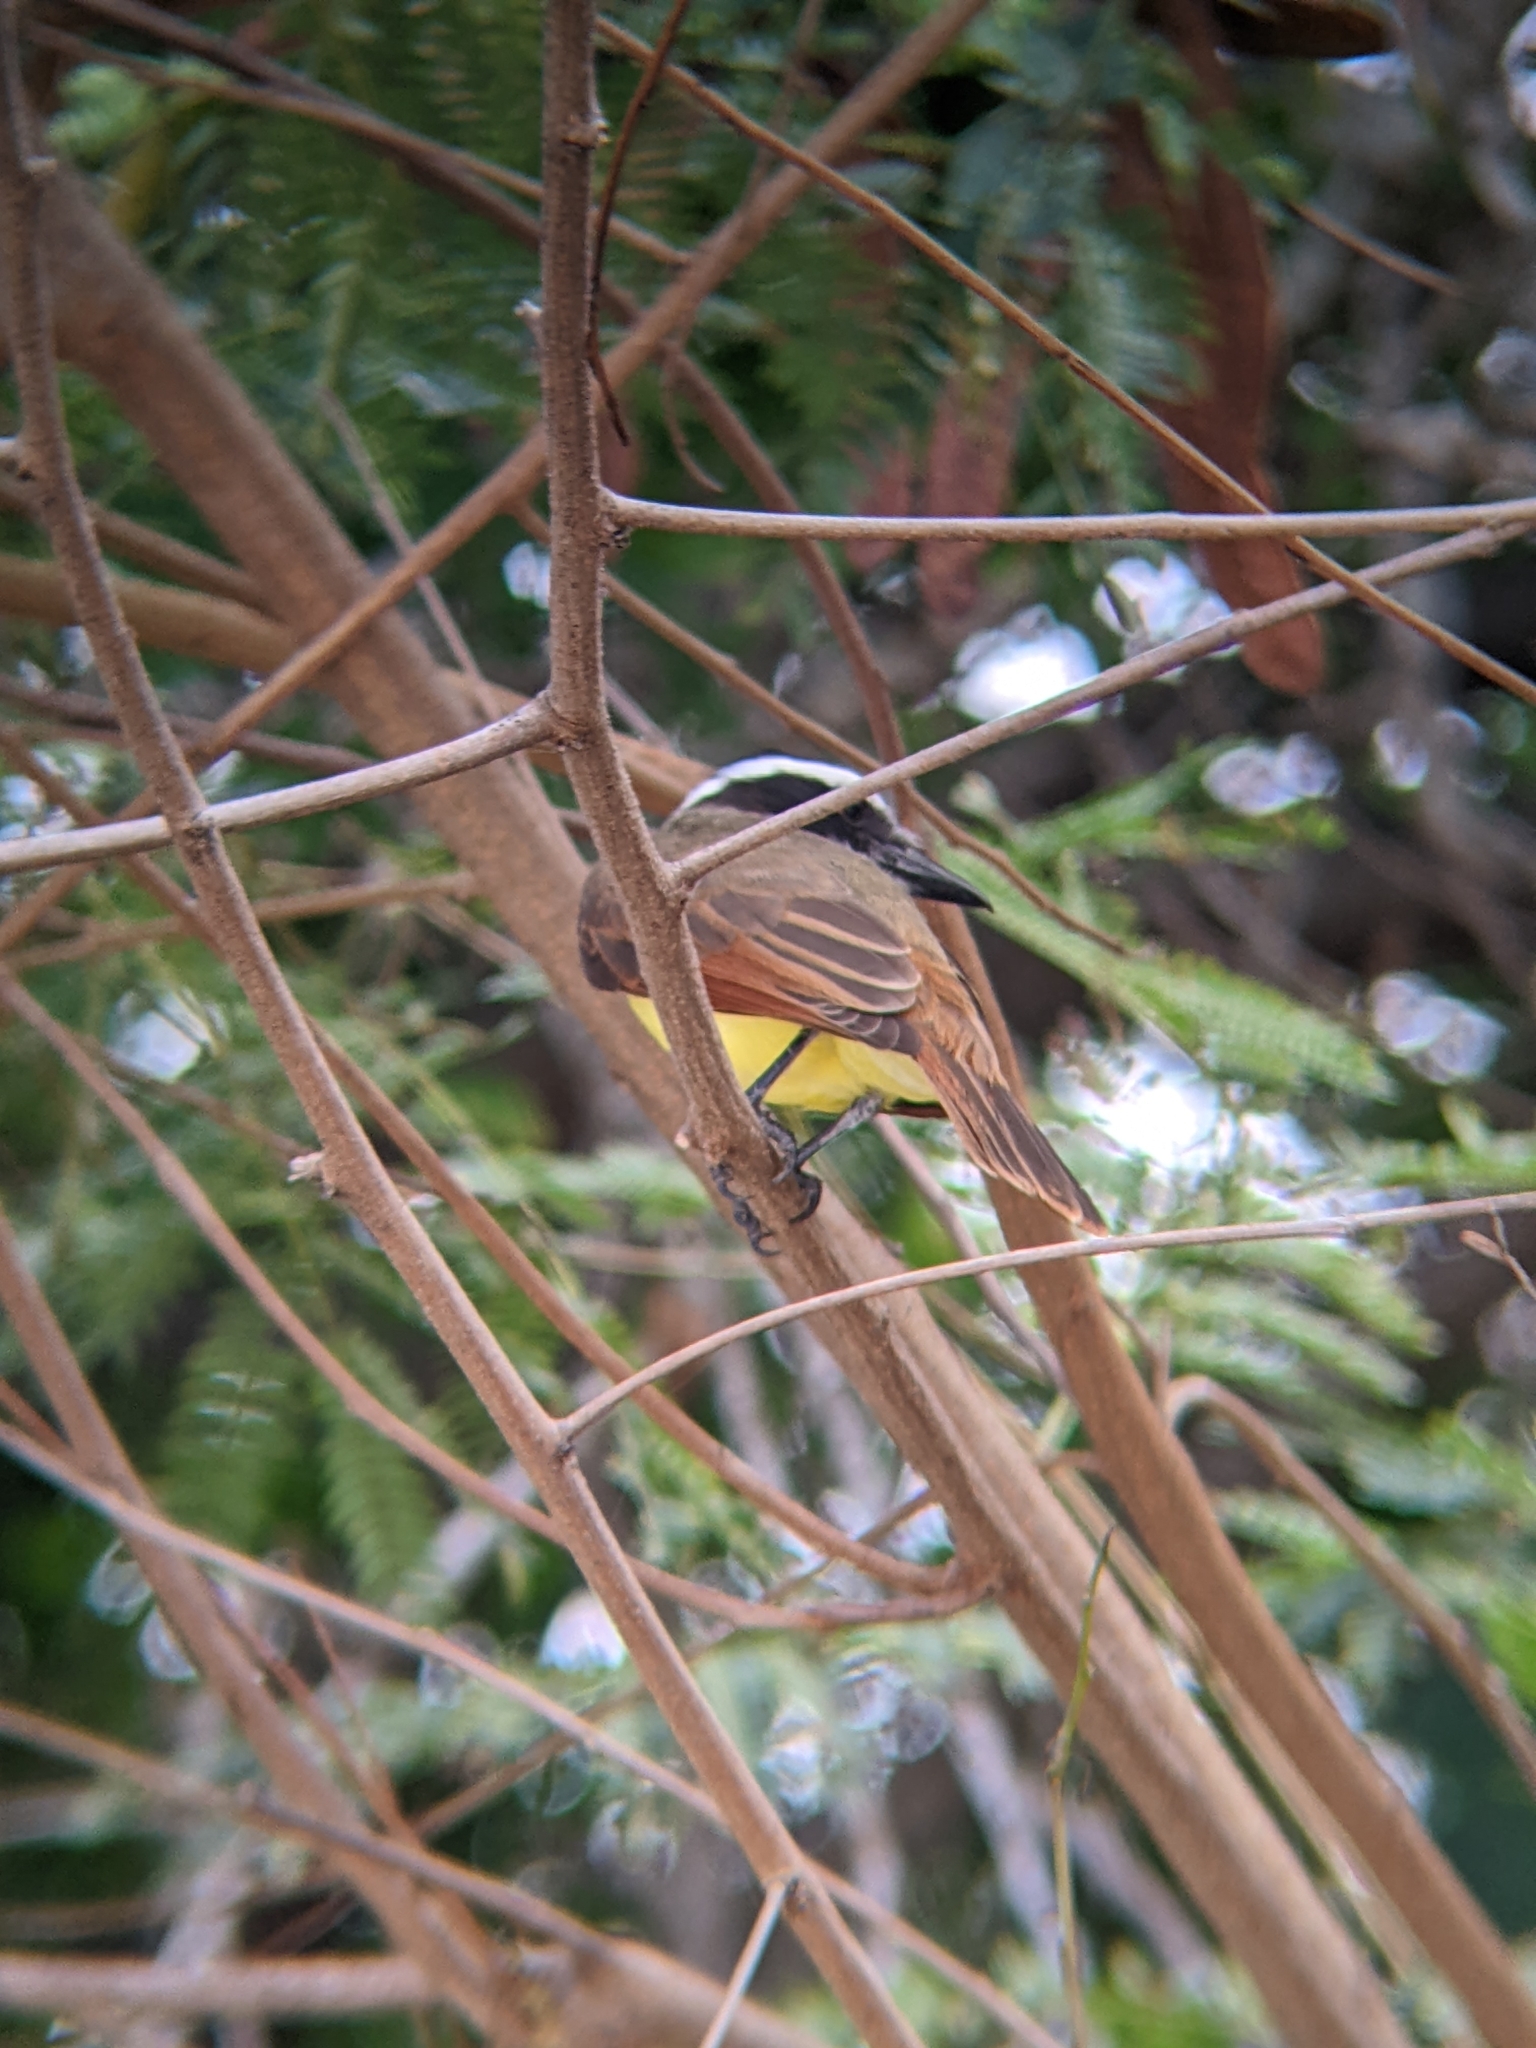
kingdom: Animalia
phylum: Chordata
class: Aves
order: Passeriformes
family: Tyrannidae
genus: Pitangus
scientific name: Pitangus sulphuratus
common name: Great kiskadee
